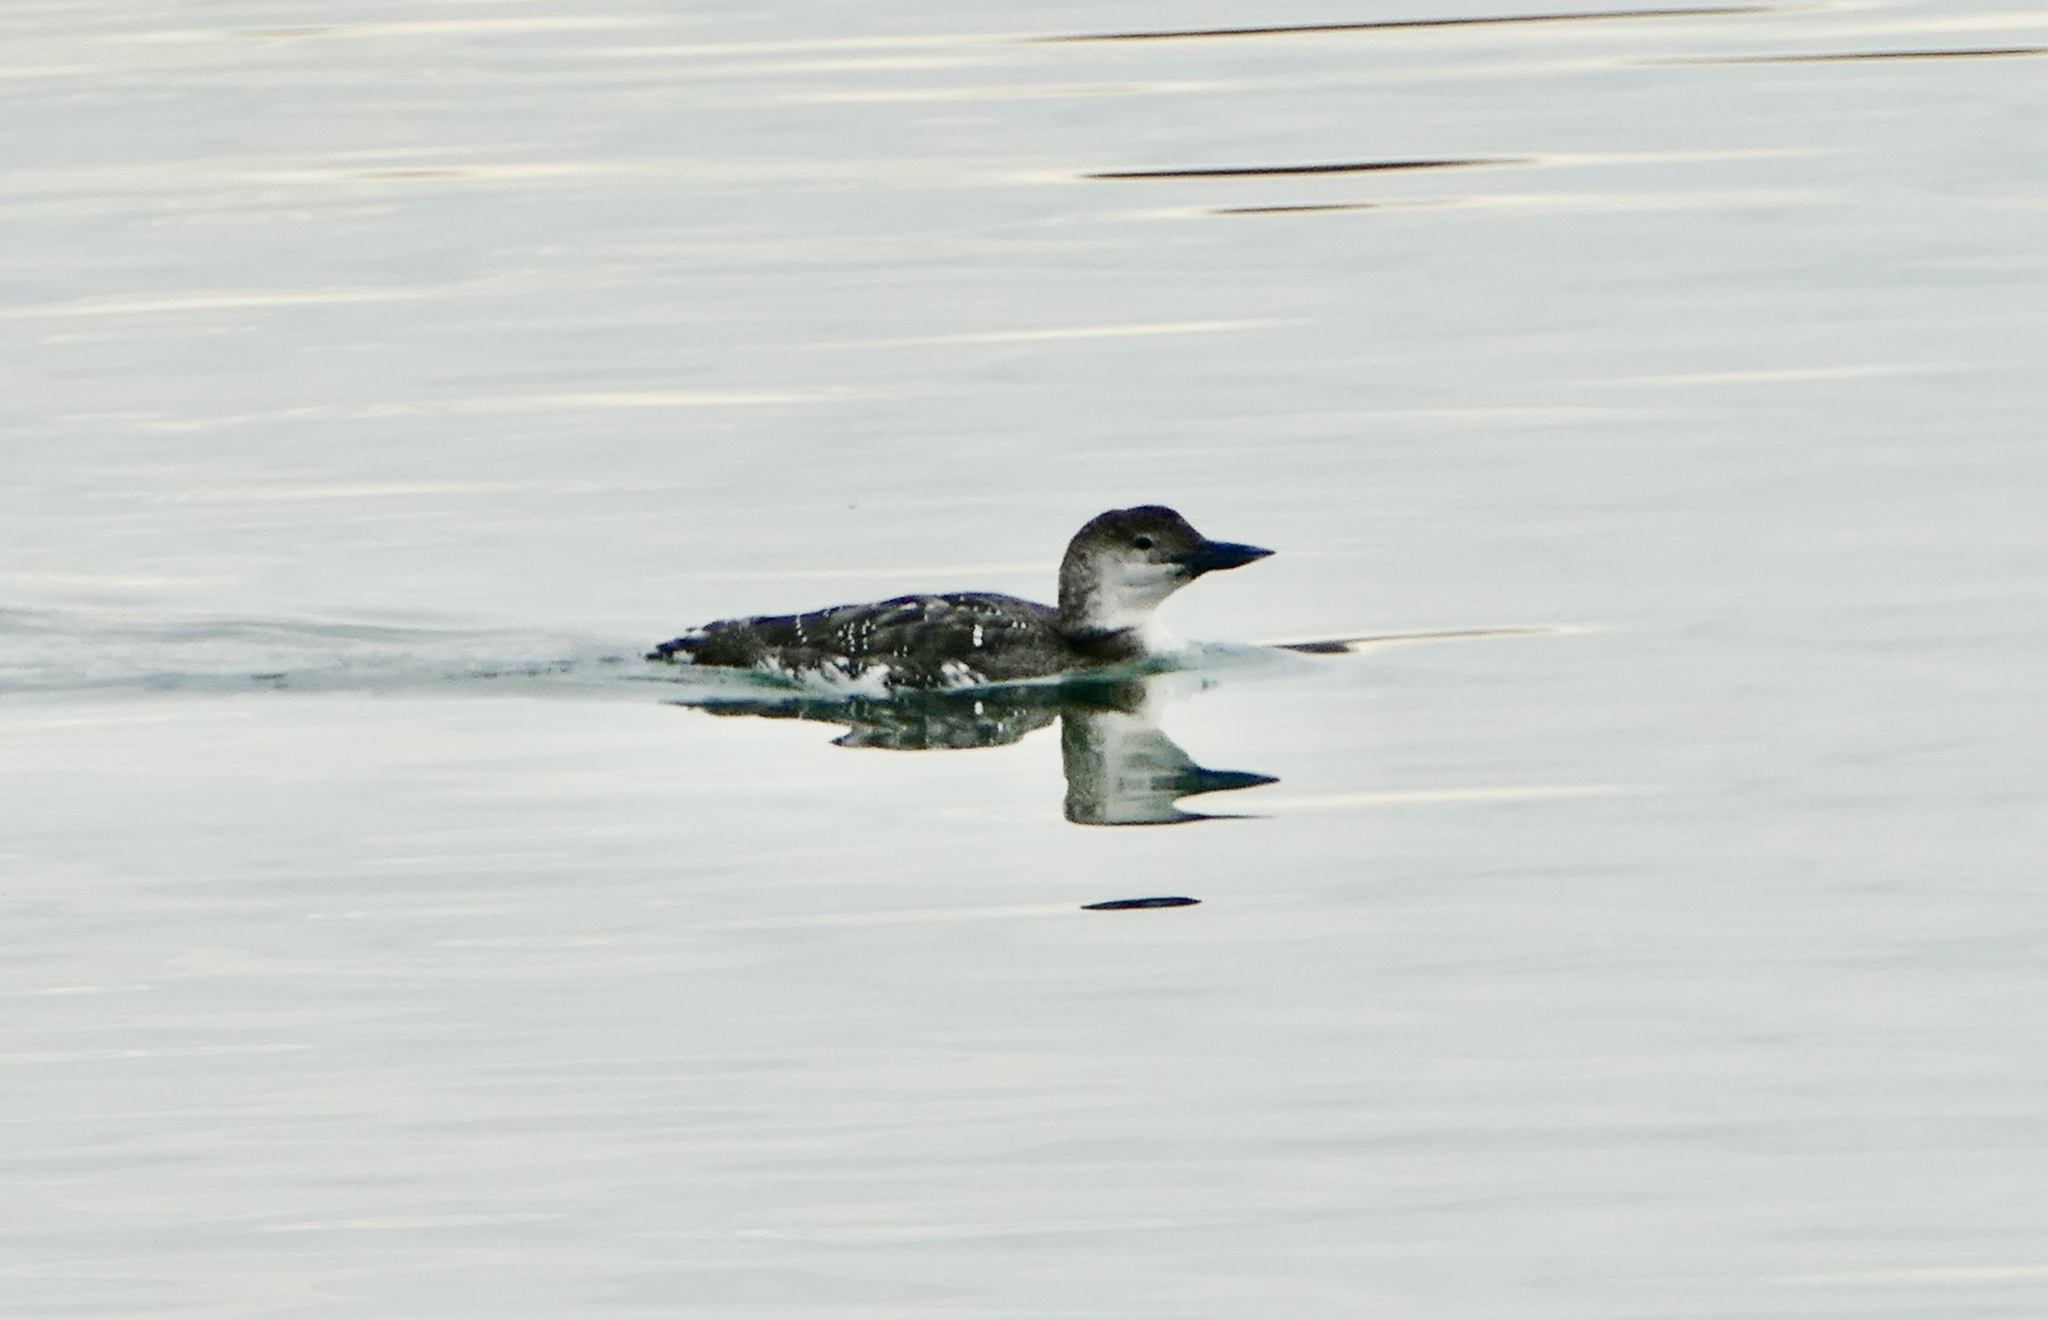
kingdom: Animalia
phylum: Chordata
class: Aves
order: Gaviiformes
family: Gaviidae
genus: Gavia
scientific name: Gavia immer
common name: Common loon
